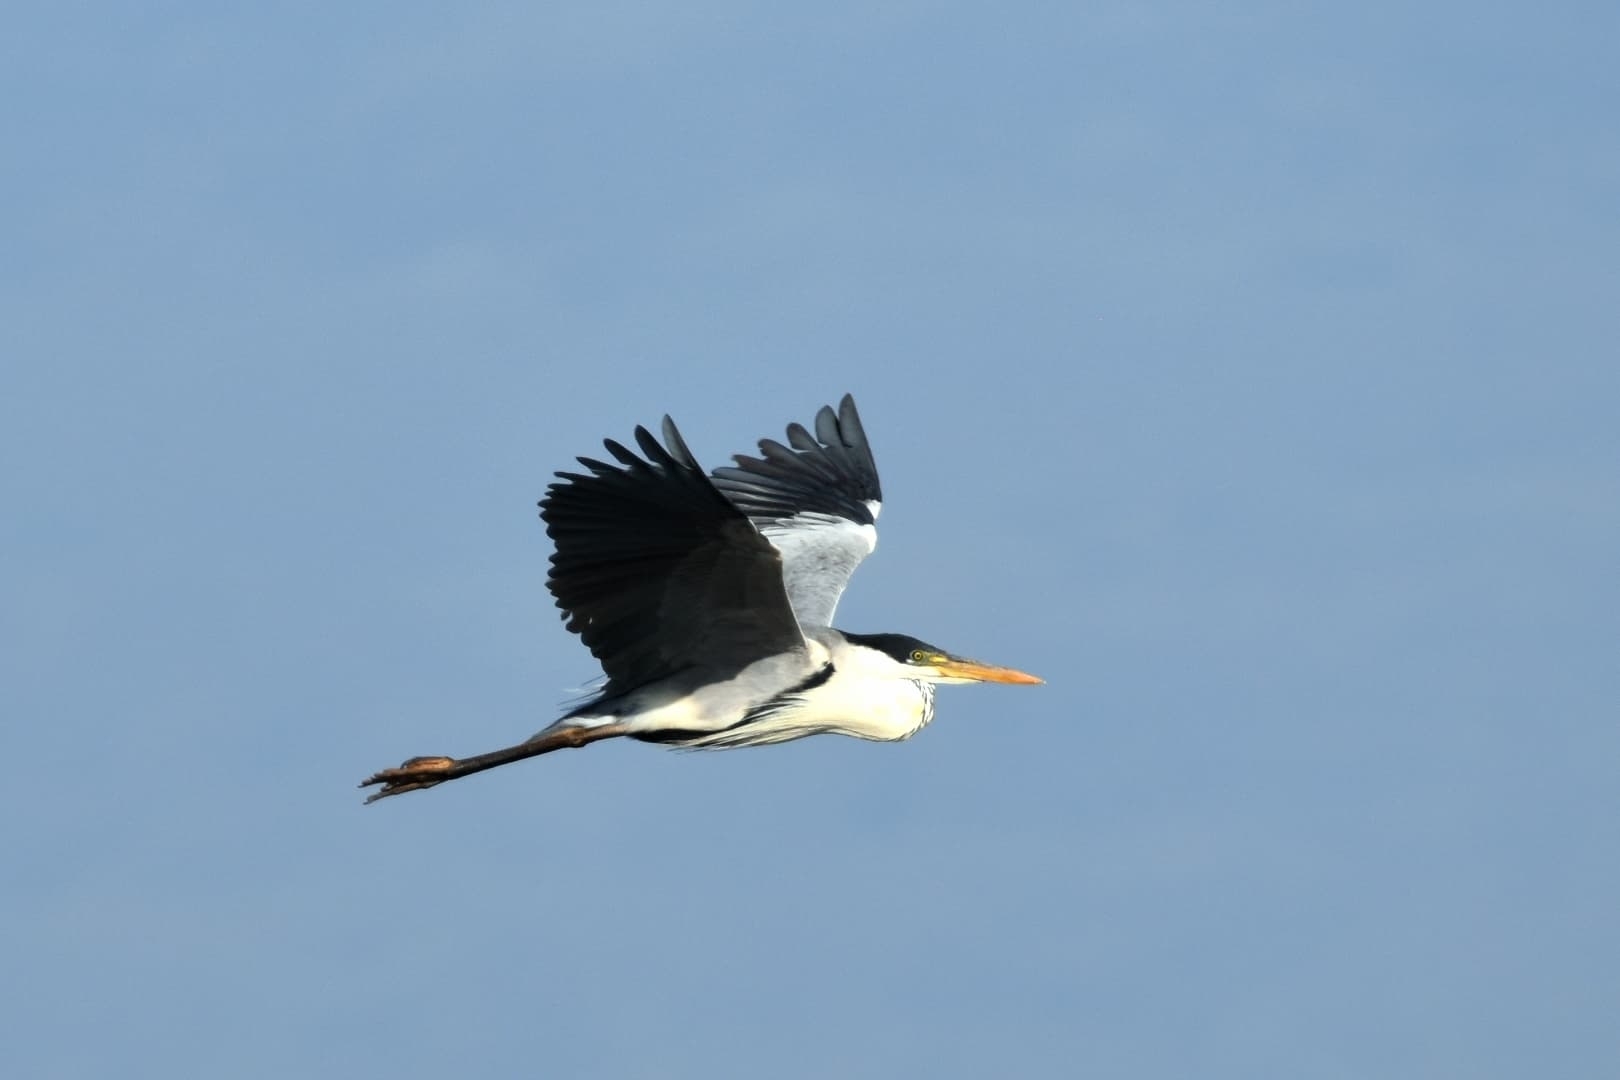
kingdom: Animalia
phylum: Chordata
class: Aves
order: Pelecaniformes
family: Ardeidae
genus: Ardea
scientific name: Ardea cocoi
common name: Cocoi heron
